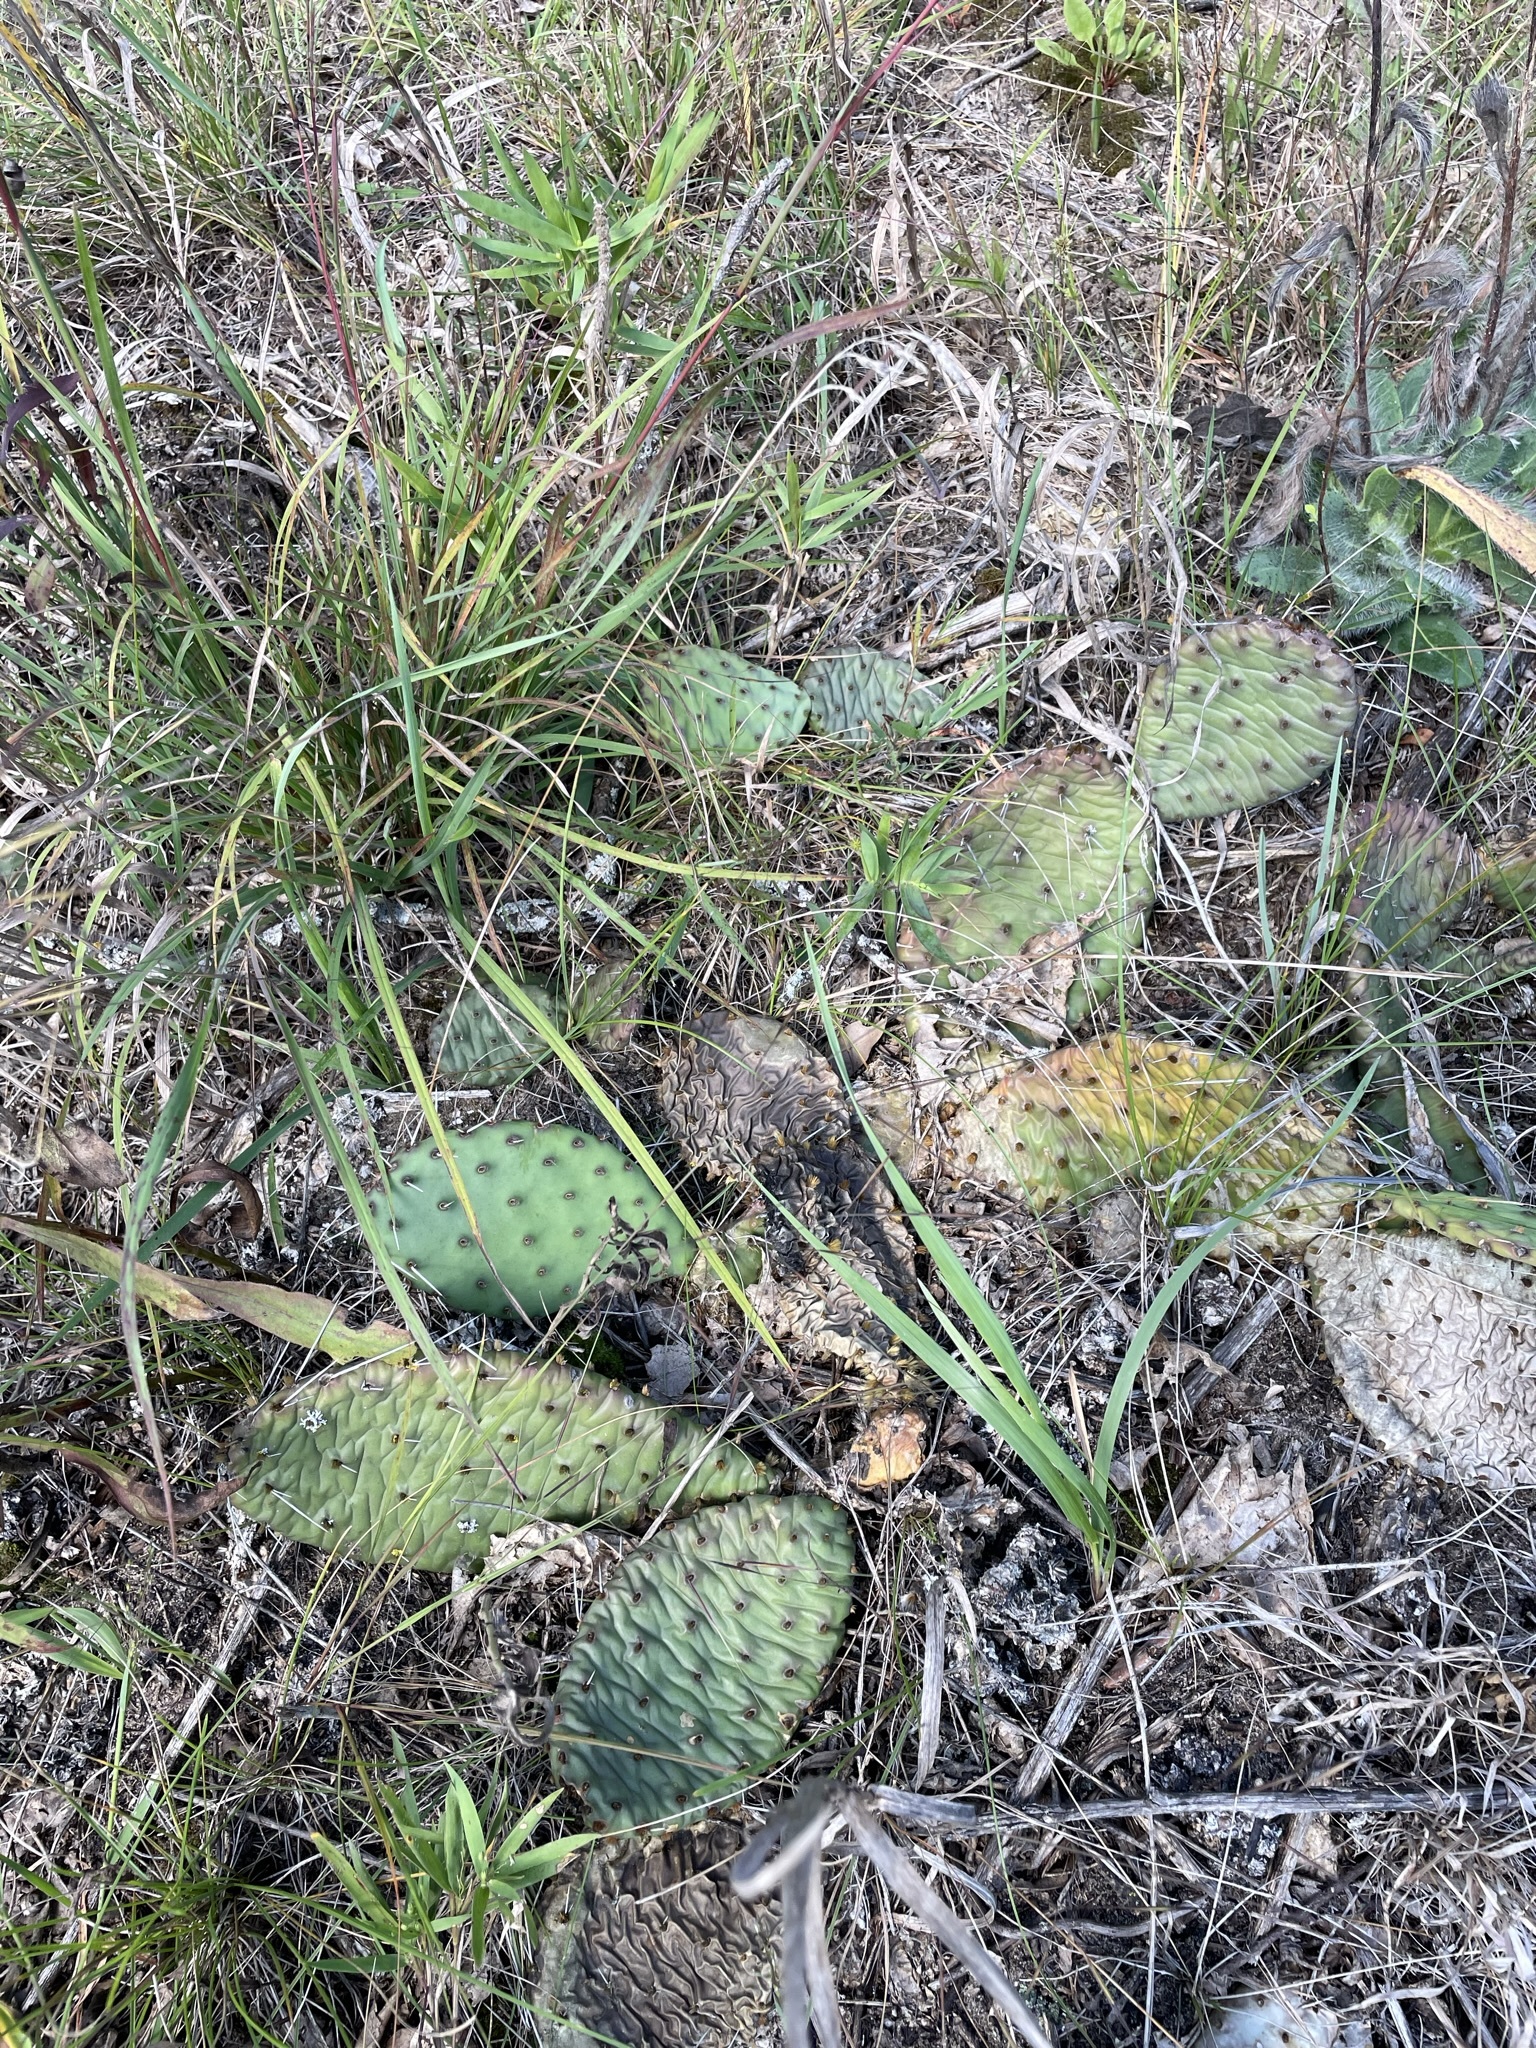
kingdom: Plantae
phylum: Tracheophyta
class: Magnoliopsida
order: Caryophyllales
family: Cactaceae
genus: Opuntia
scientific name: Opuntia humifusa
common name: Eastern prickly-pear
